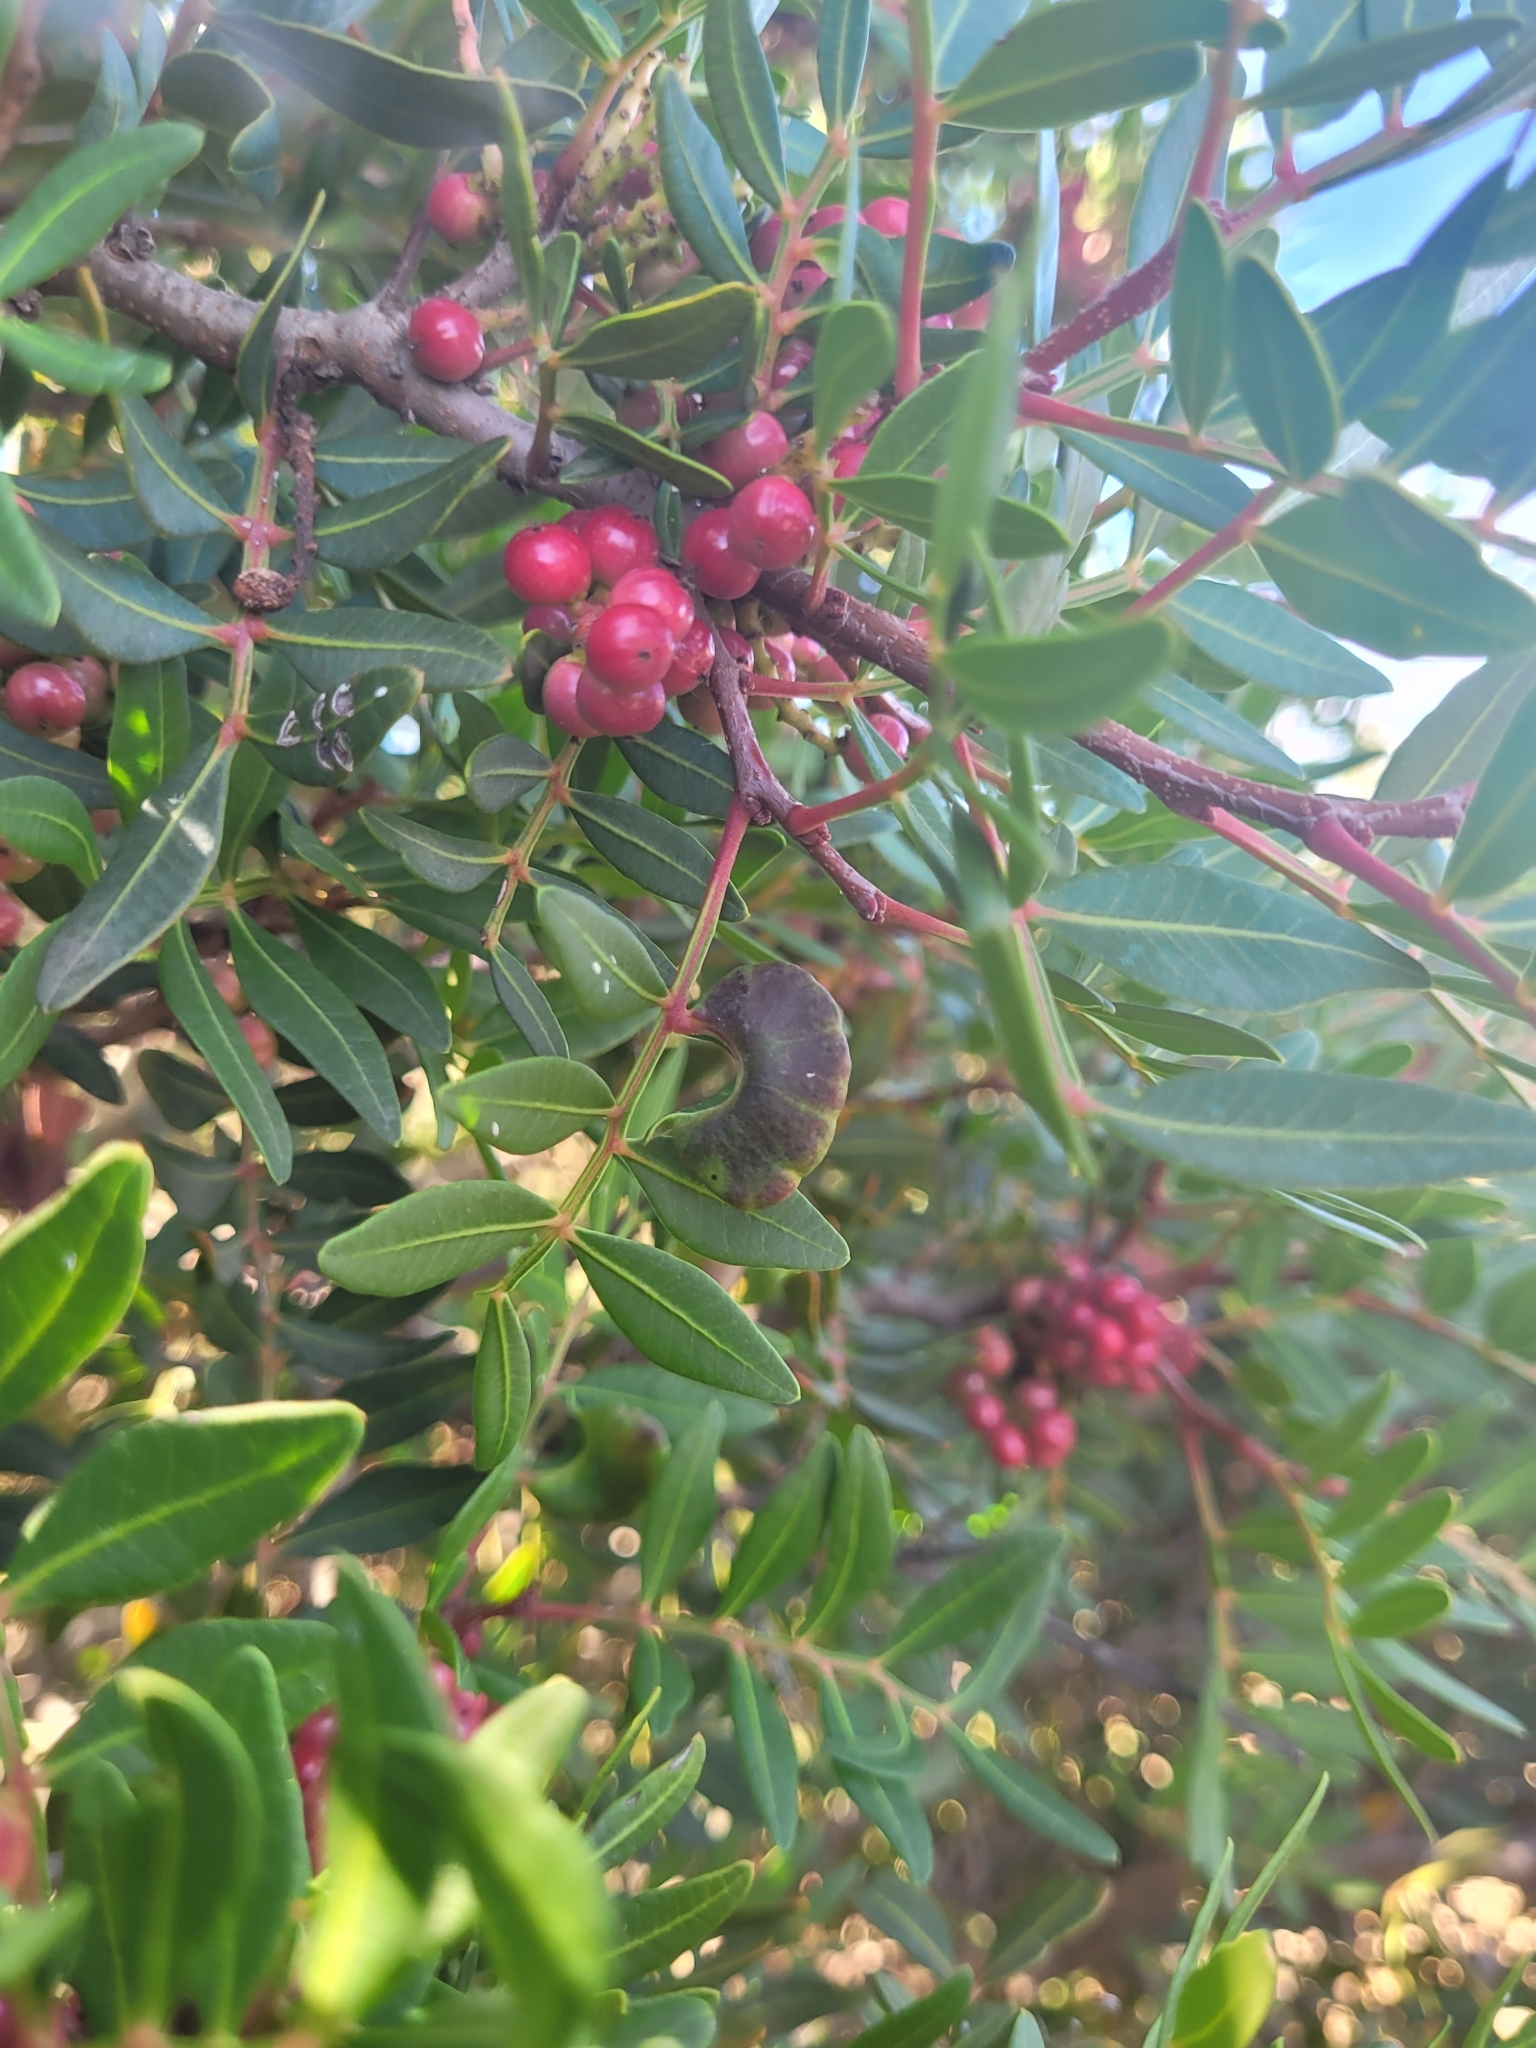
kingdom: Plantae
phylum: Tracheophyta
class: Magnoliopsida
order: Sapindales
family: Anacardiaceae
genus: Pistacia
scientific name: Pistacia lentiscus
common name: Lentisk
